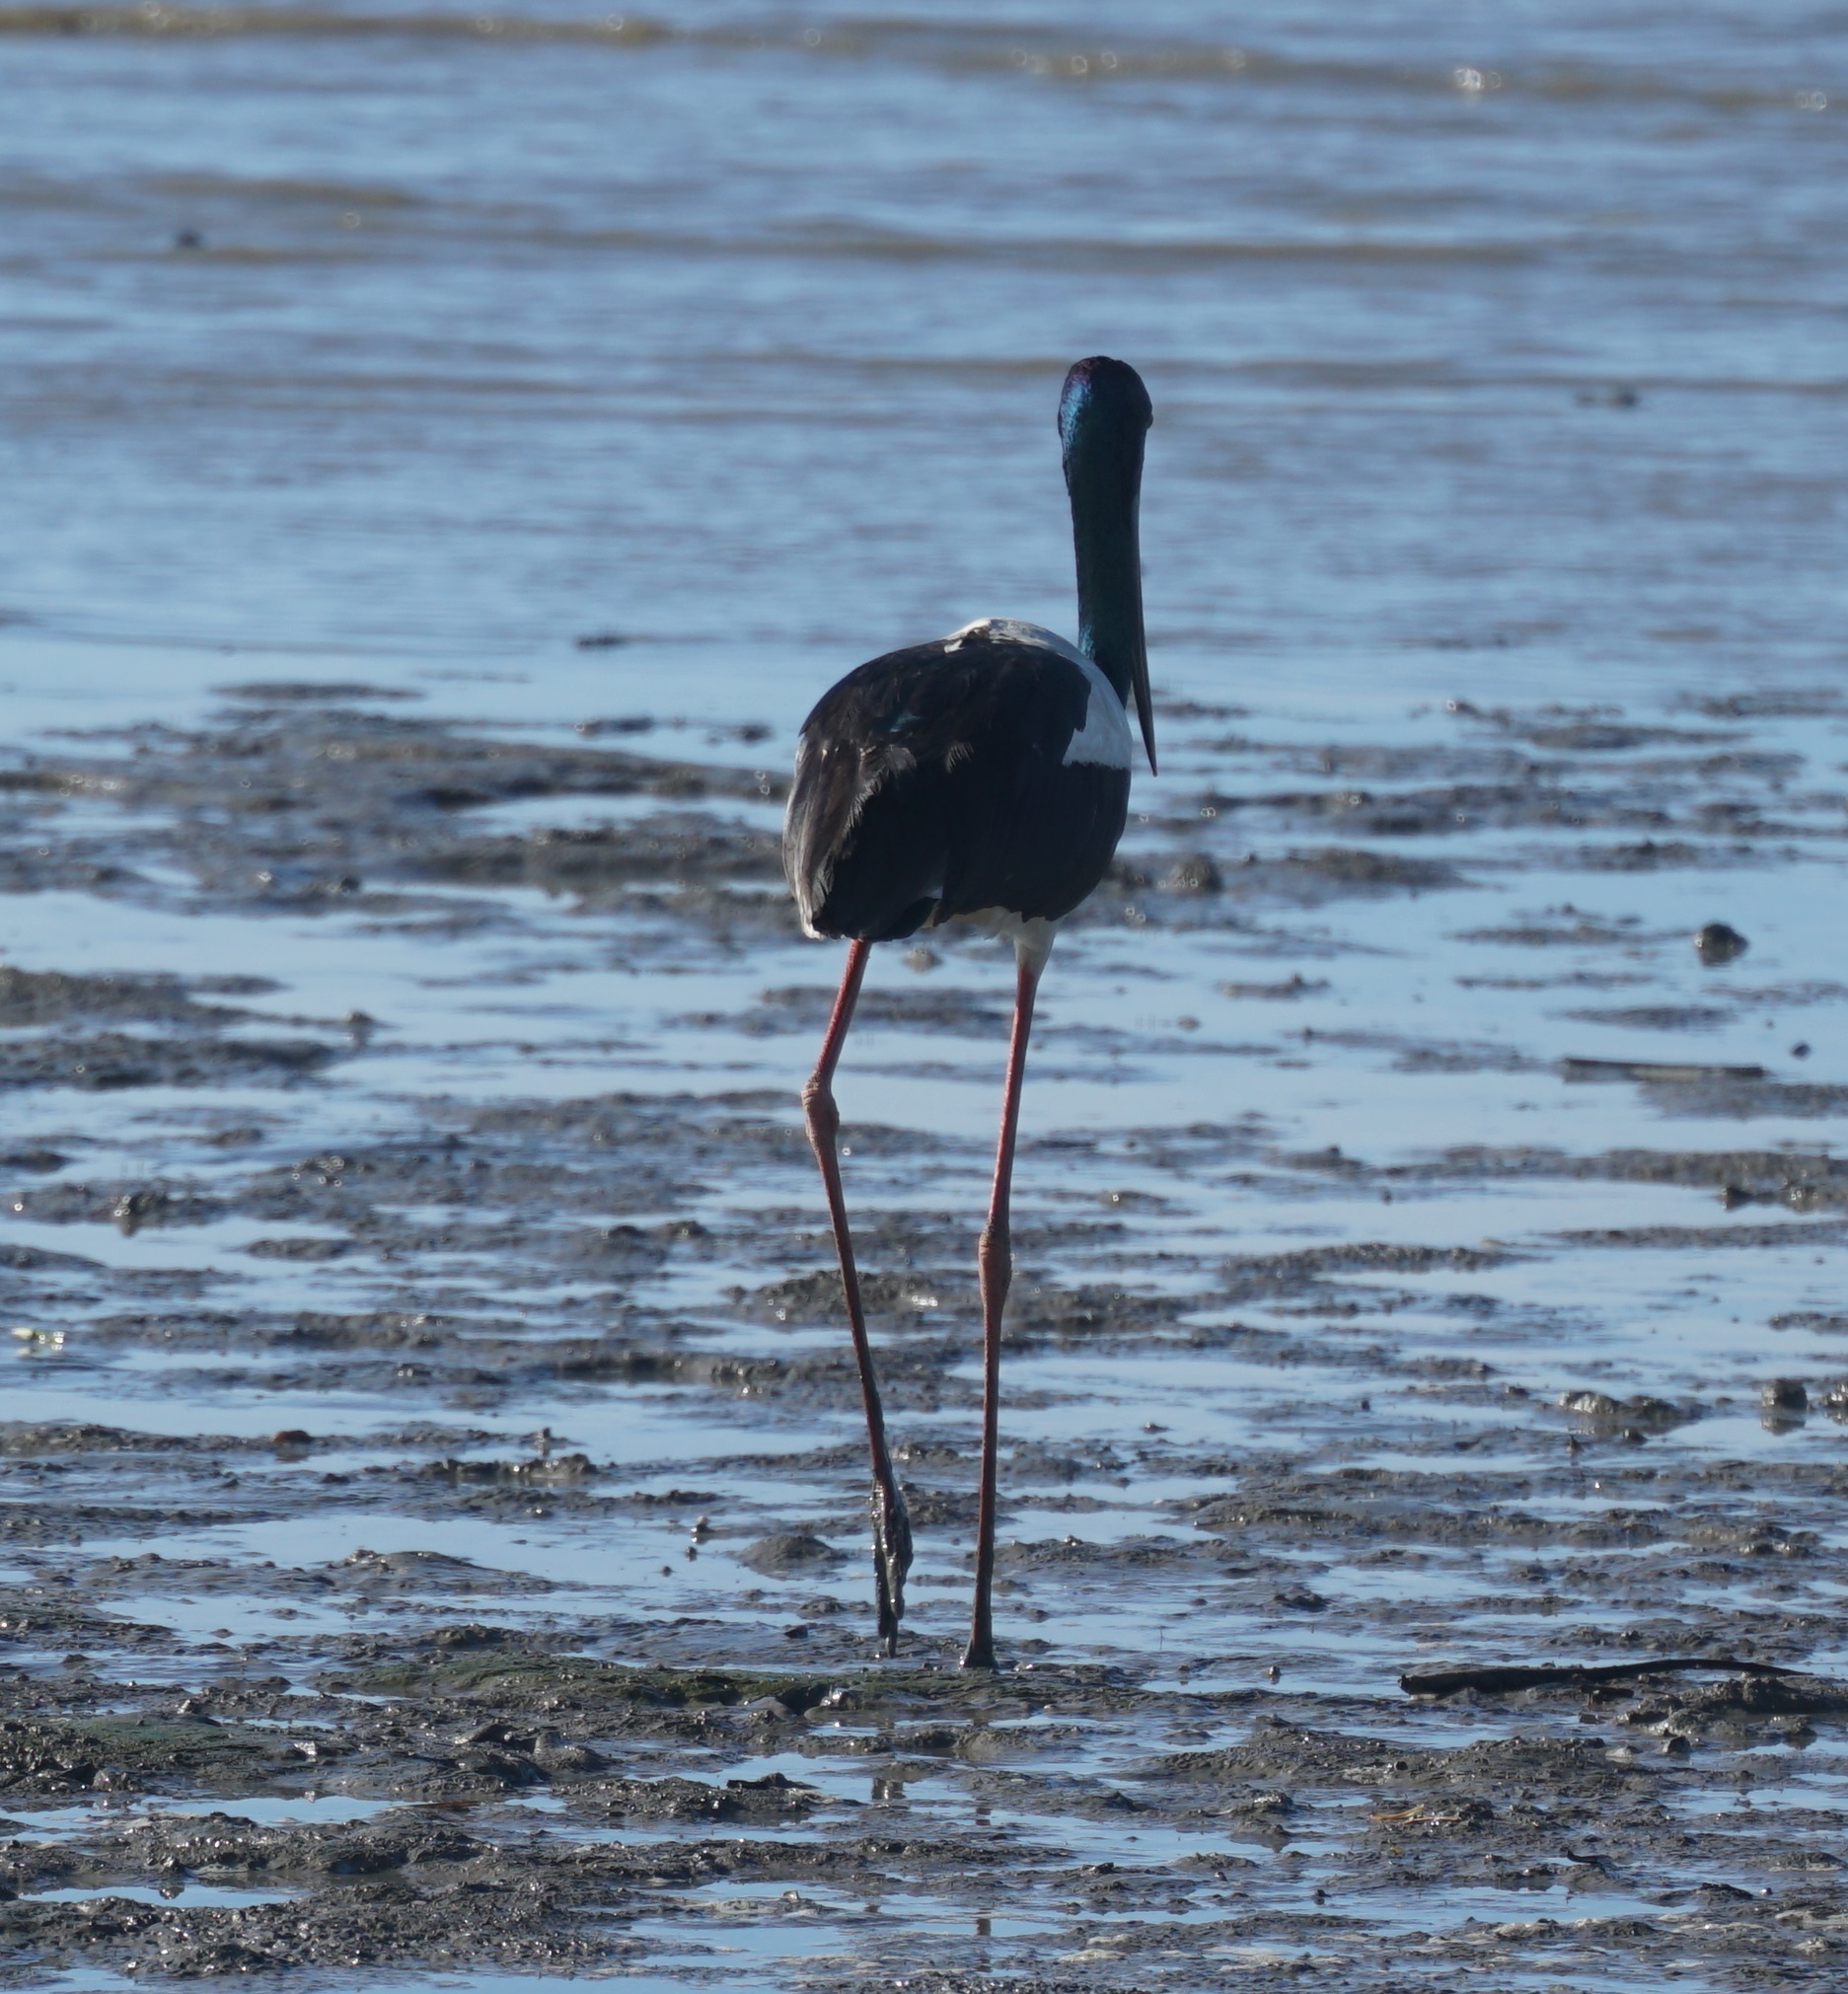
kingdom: Animalia
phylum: Chordata
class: Aves
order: Ciconiiformes
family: Ciconiidae
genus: Ephippiorhynchus
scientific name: Ephippiorhynchus asiaticus
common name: Black-necked stork
